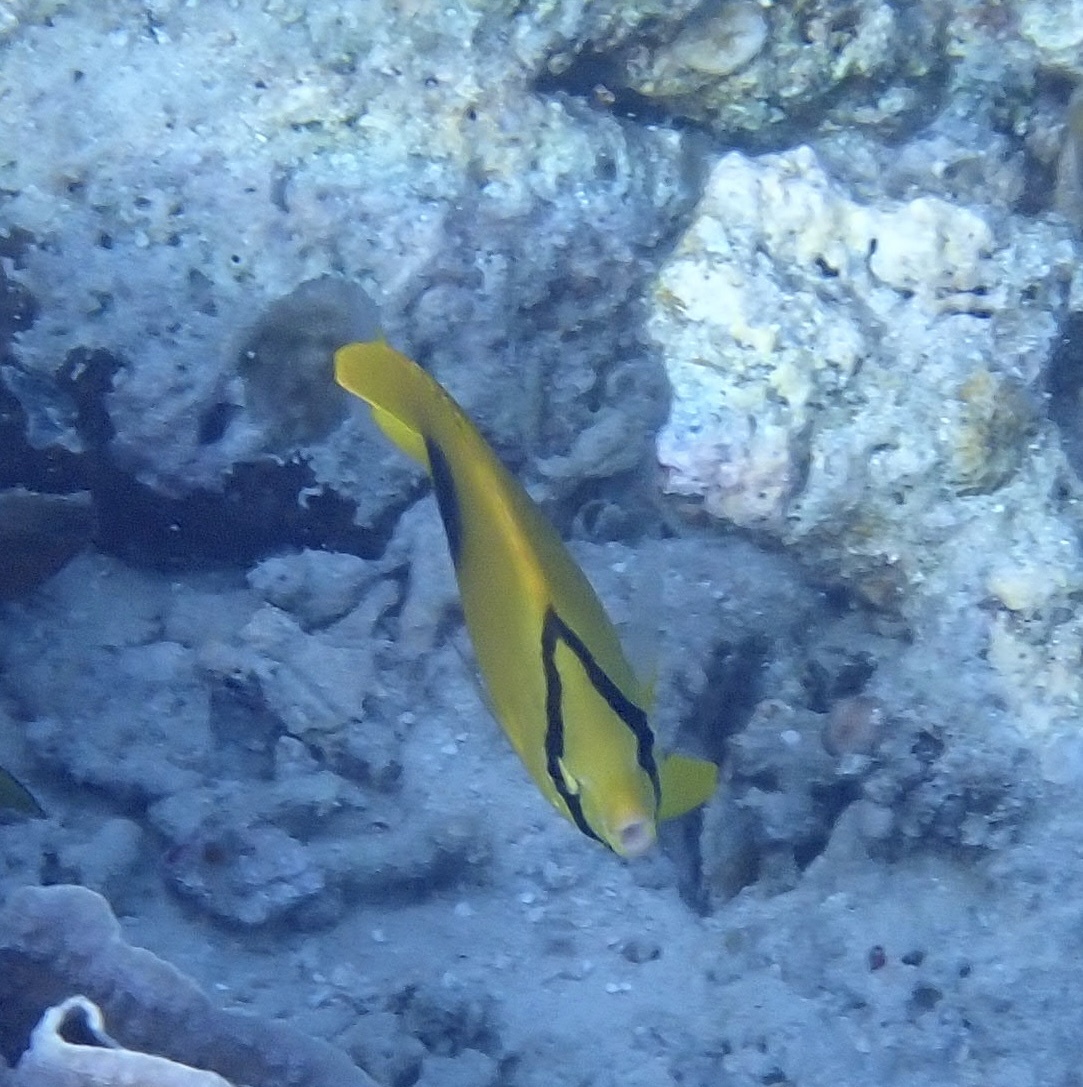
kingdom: Animalia
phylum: Chordata
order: Perciformes
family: Chaetodontidae
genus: Chaetodon
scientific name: Chaetodon speculum
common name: Mirror butterflyfish
